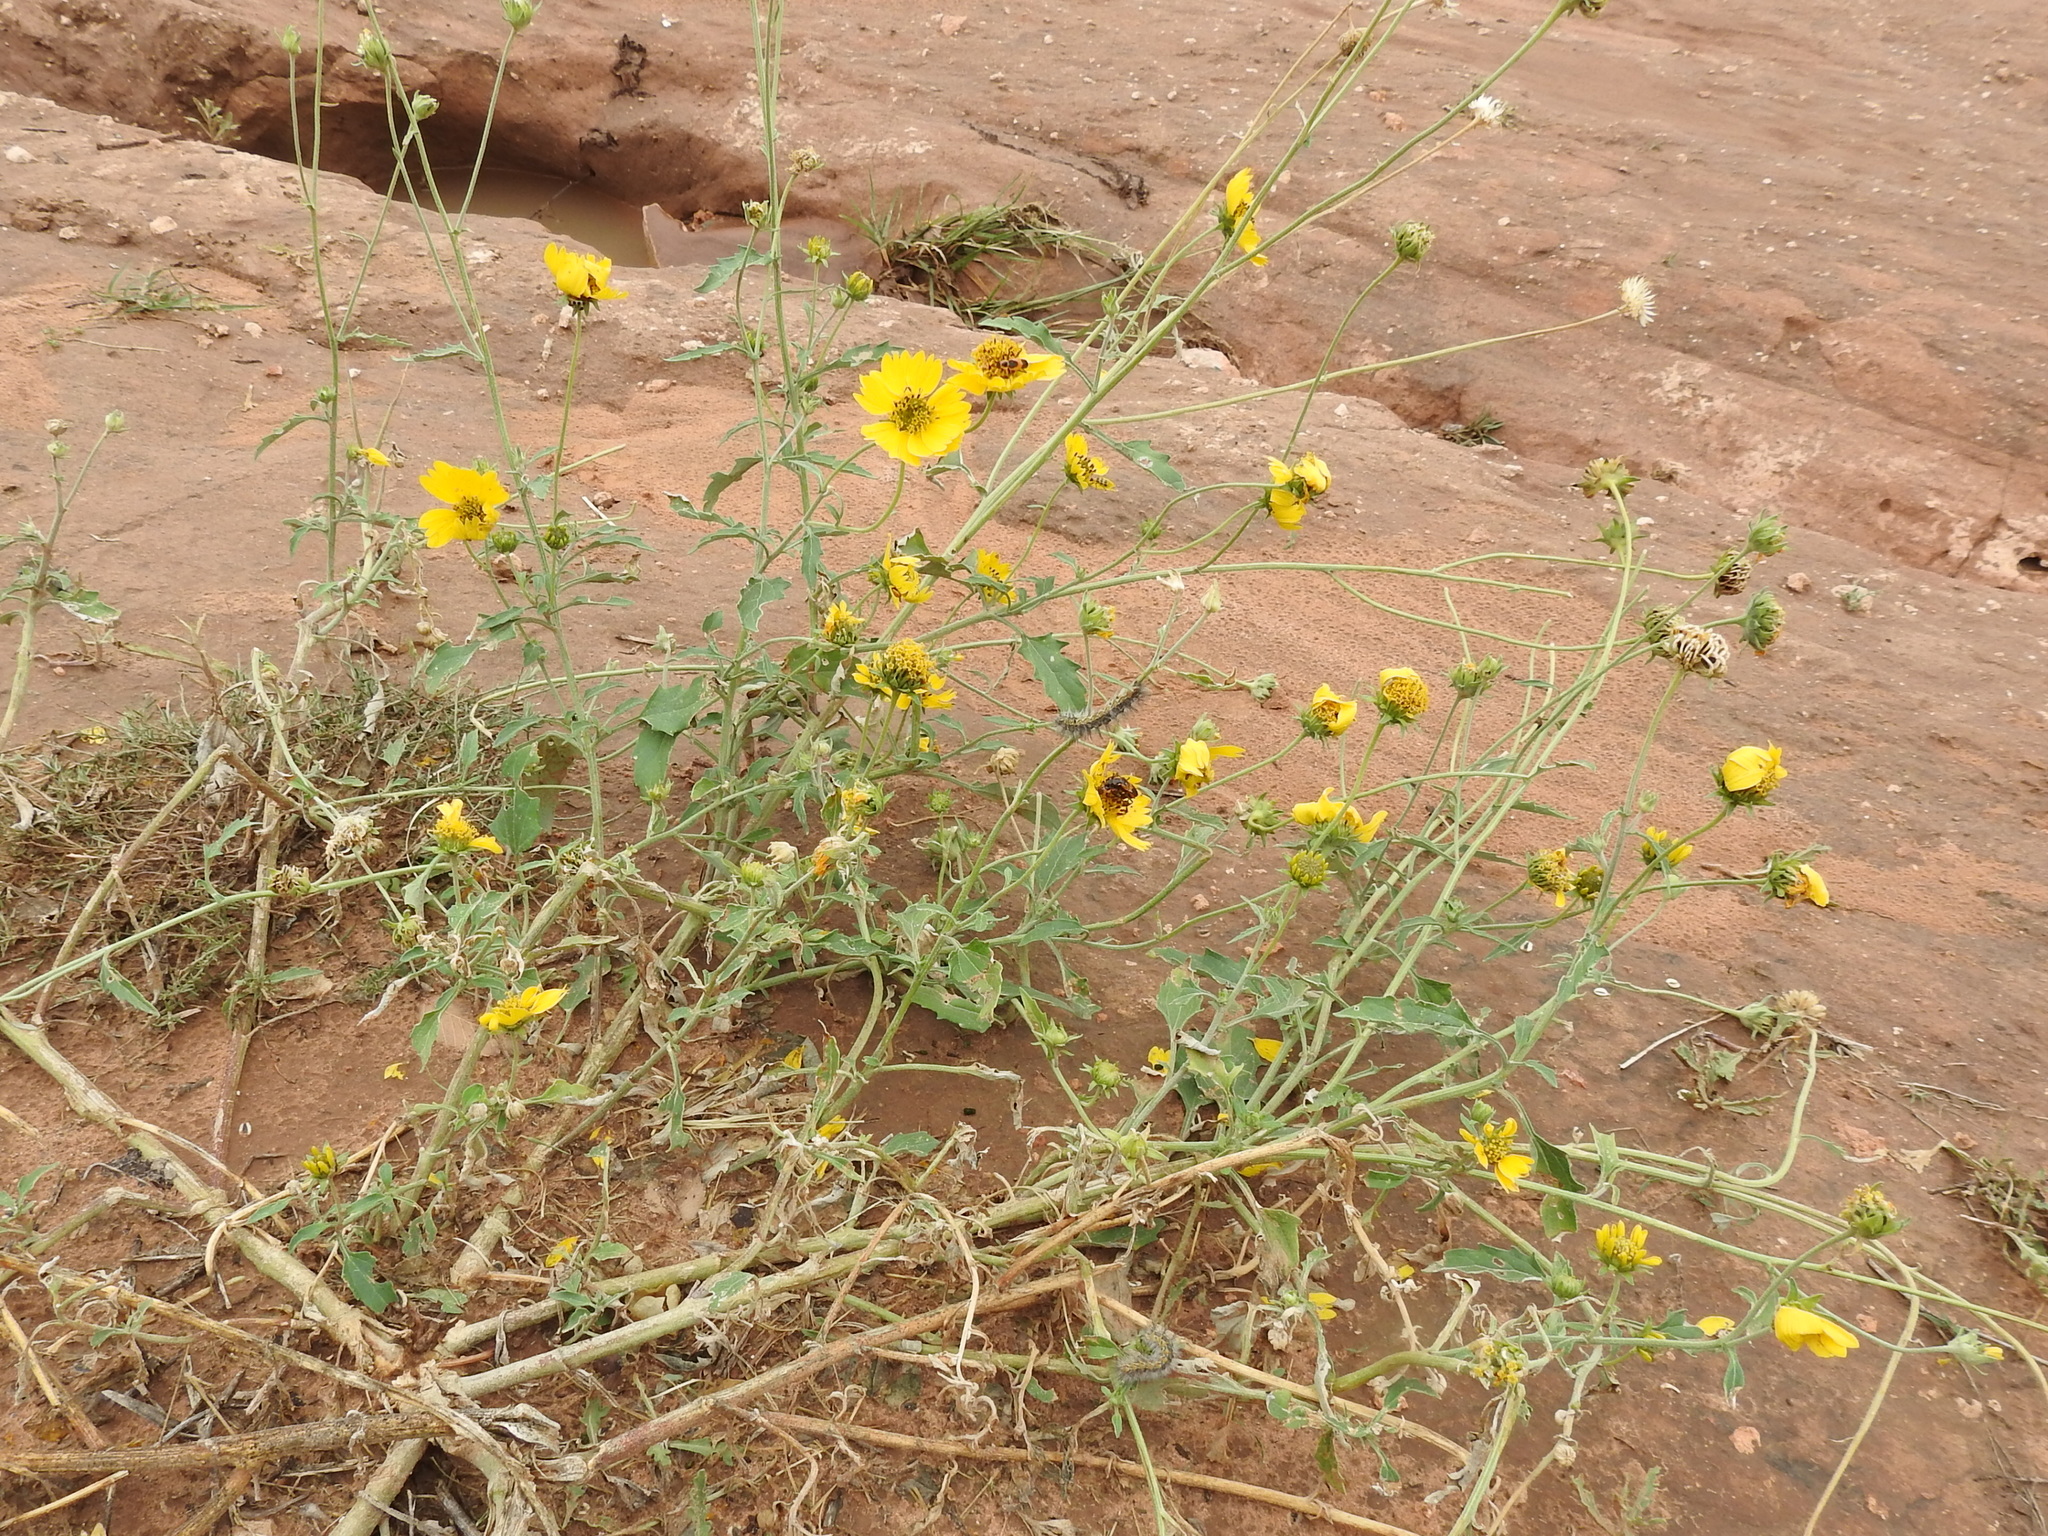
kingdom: Plantae
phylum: Tracheophyta
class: Magnoliopsida
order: Asterales
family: Asteraceae
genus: Verbesina
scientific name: Verbesina encelioides
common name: Golden crownbeard
